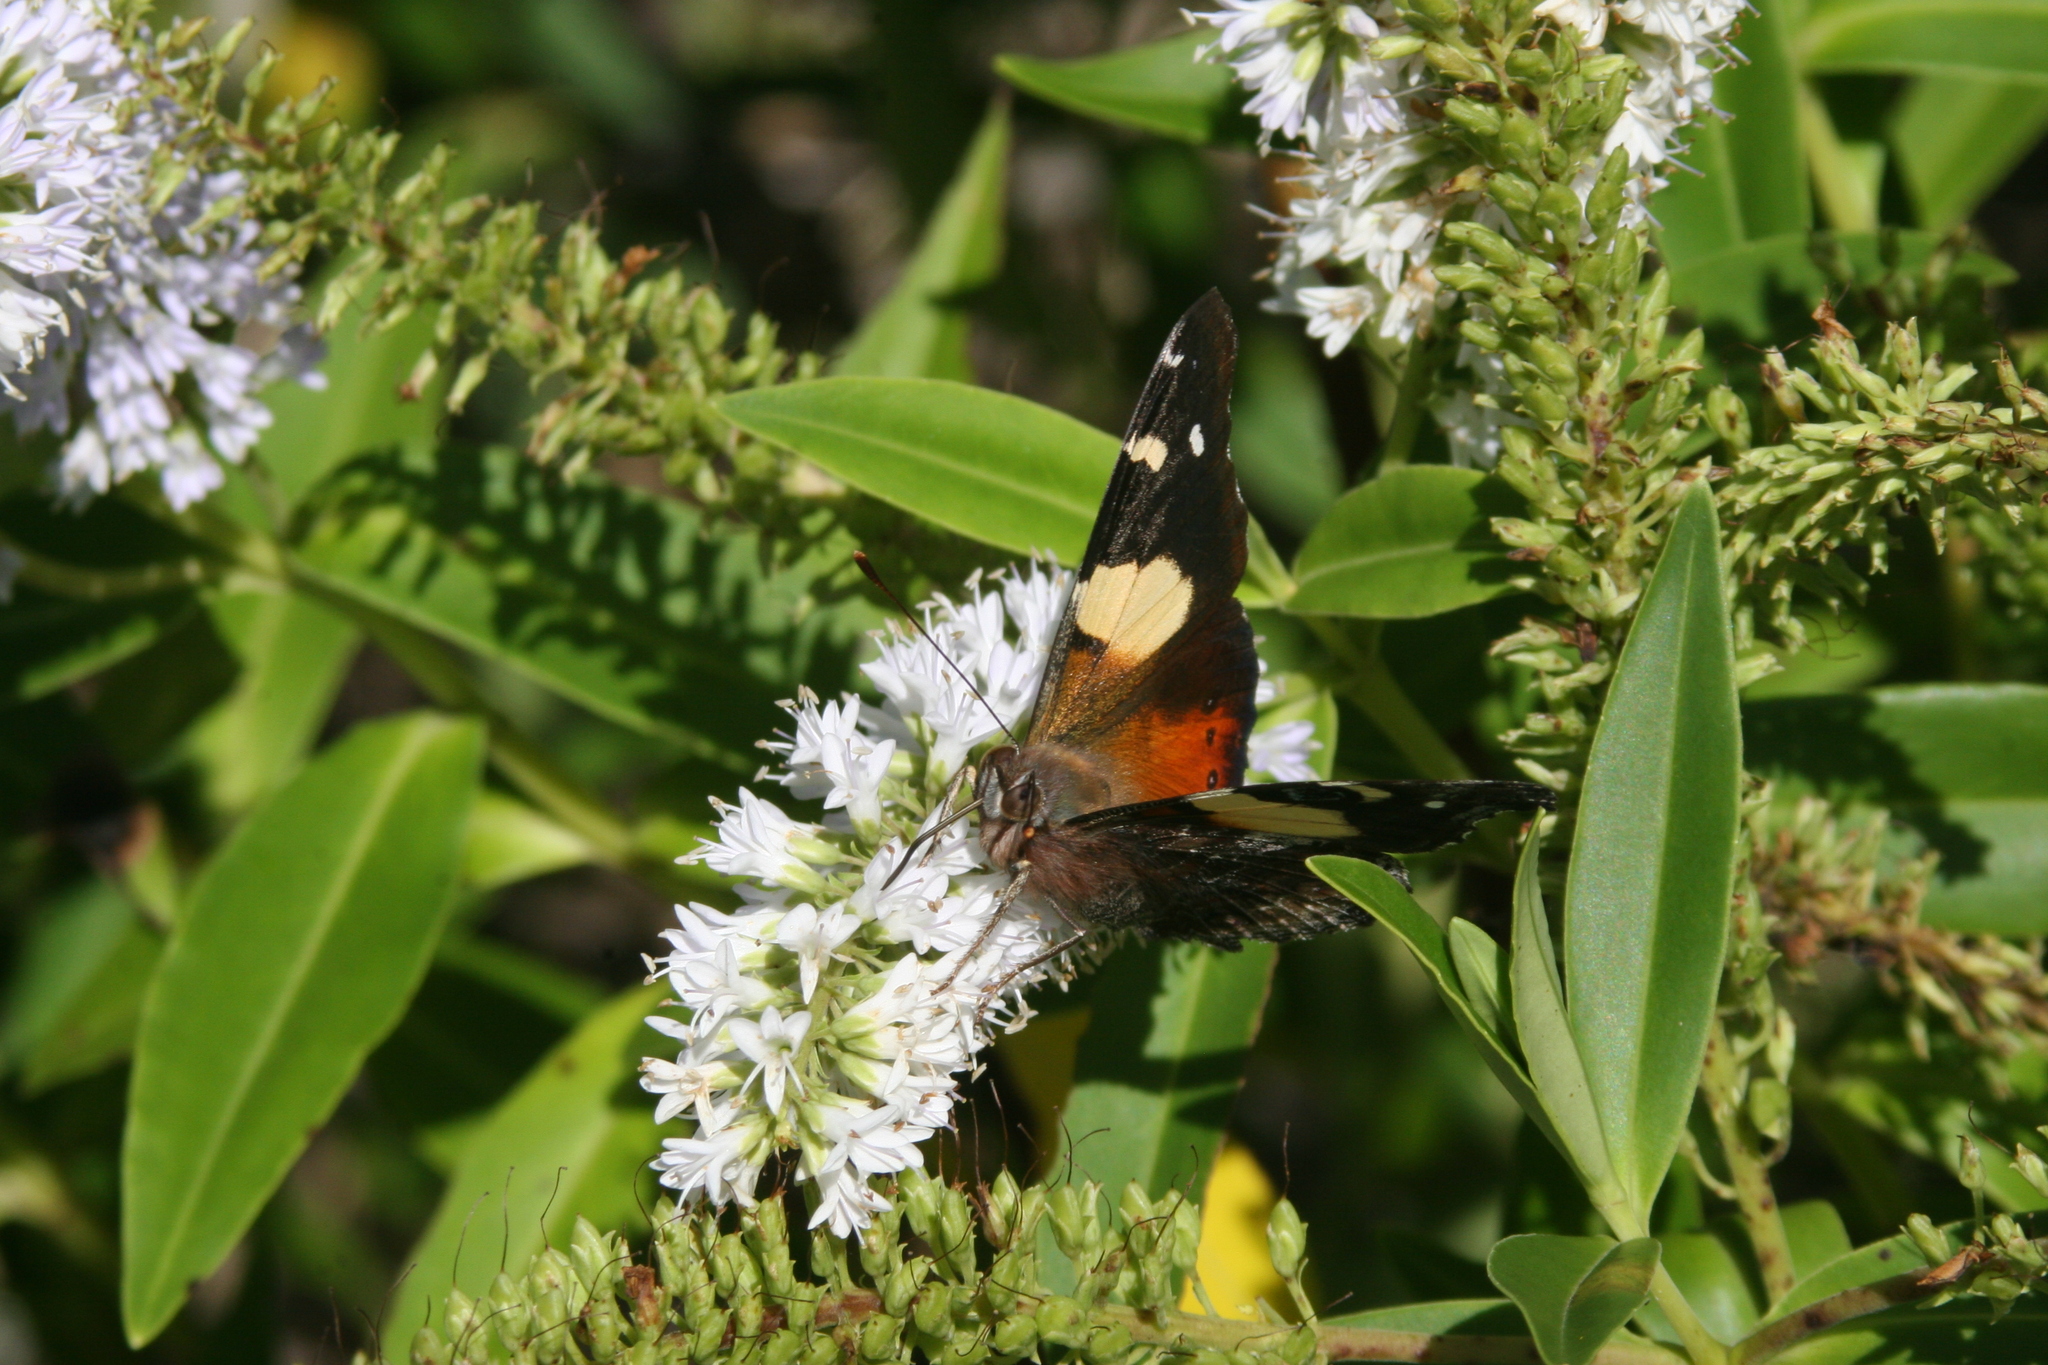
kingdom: Animalia
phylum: Arthropoda
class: Insecta
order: Lepidoptera
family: Nymphalidae
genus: Vanessa
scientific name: Vanessa itea
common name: Yellow admiral
